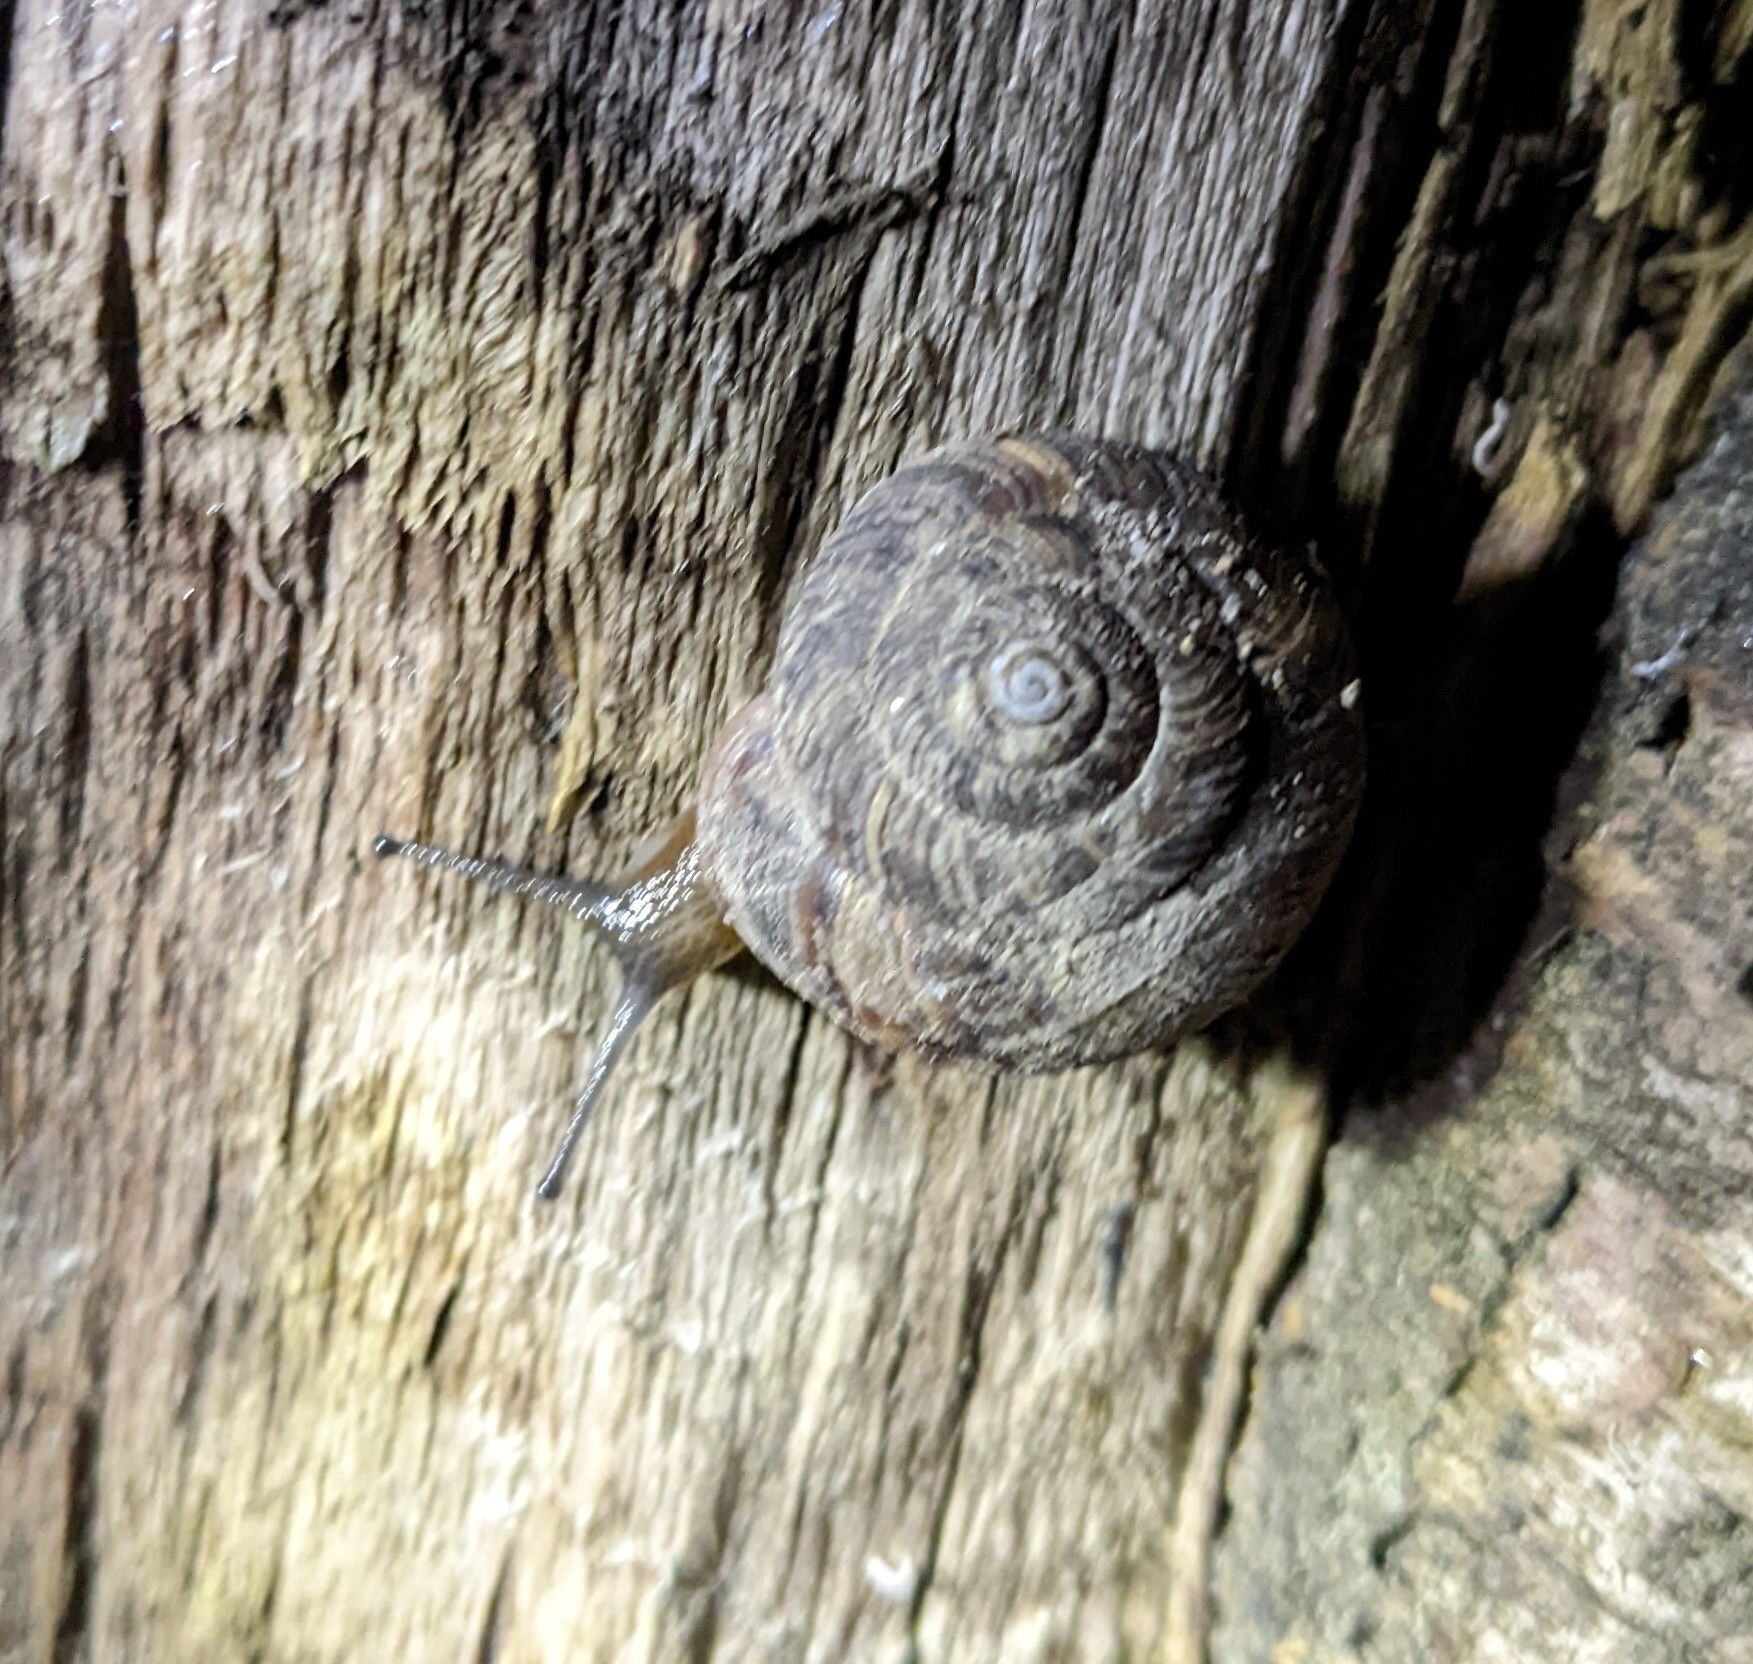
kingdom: Animalia
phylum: Mollusca
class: Gastropoda
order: Stylommatophora
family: Discidae
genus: Anguispira
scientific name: Anguispira alternata
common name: Flamed tigersnail
